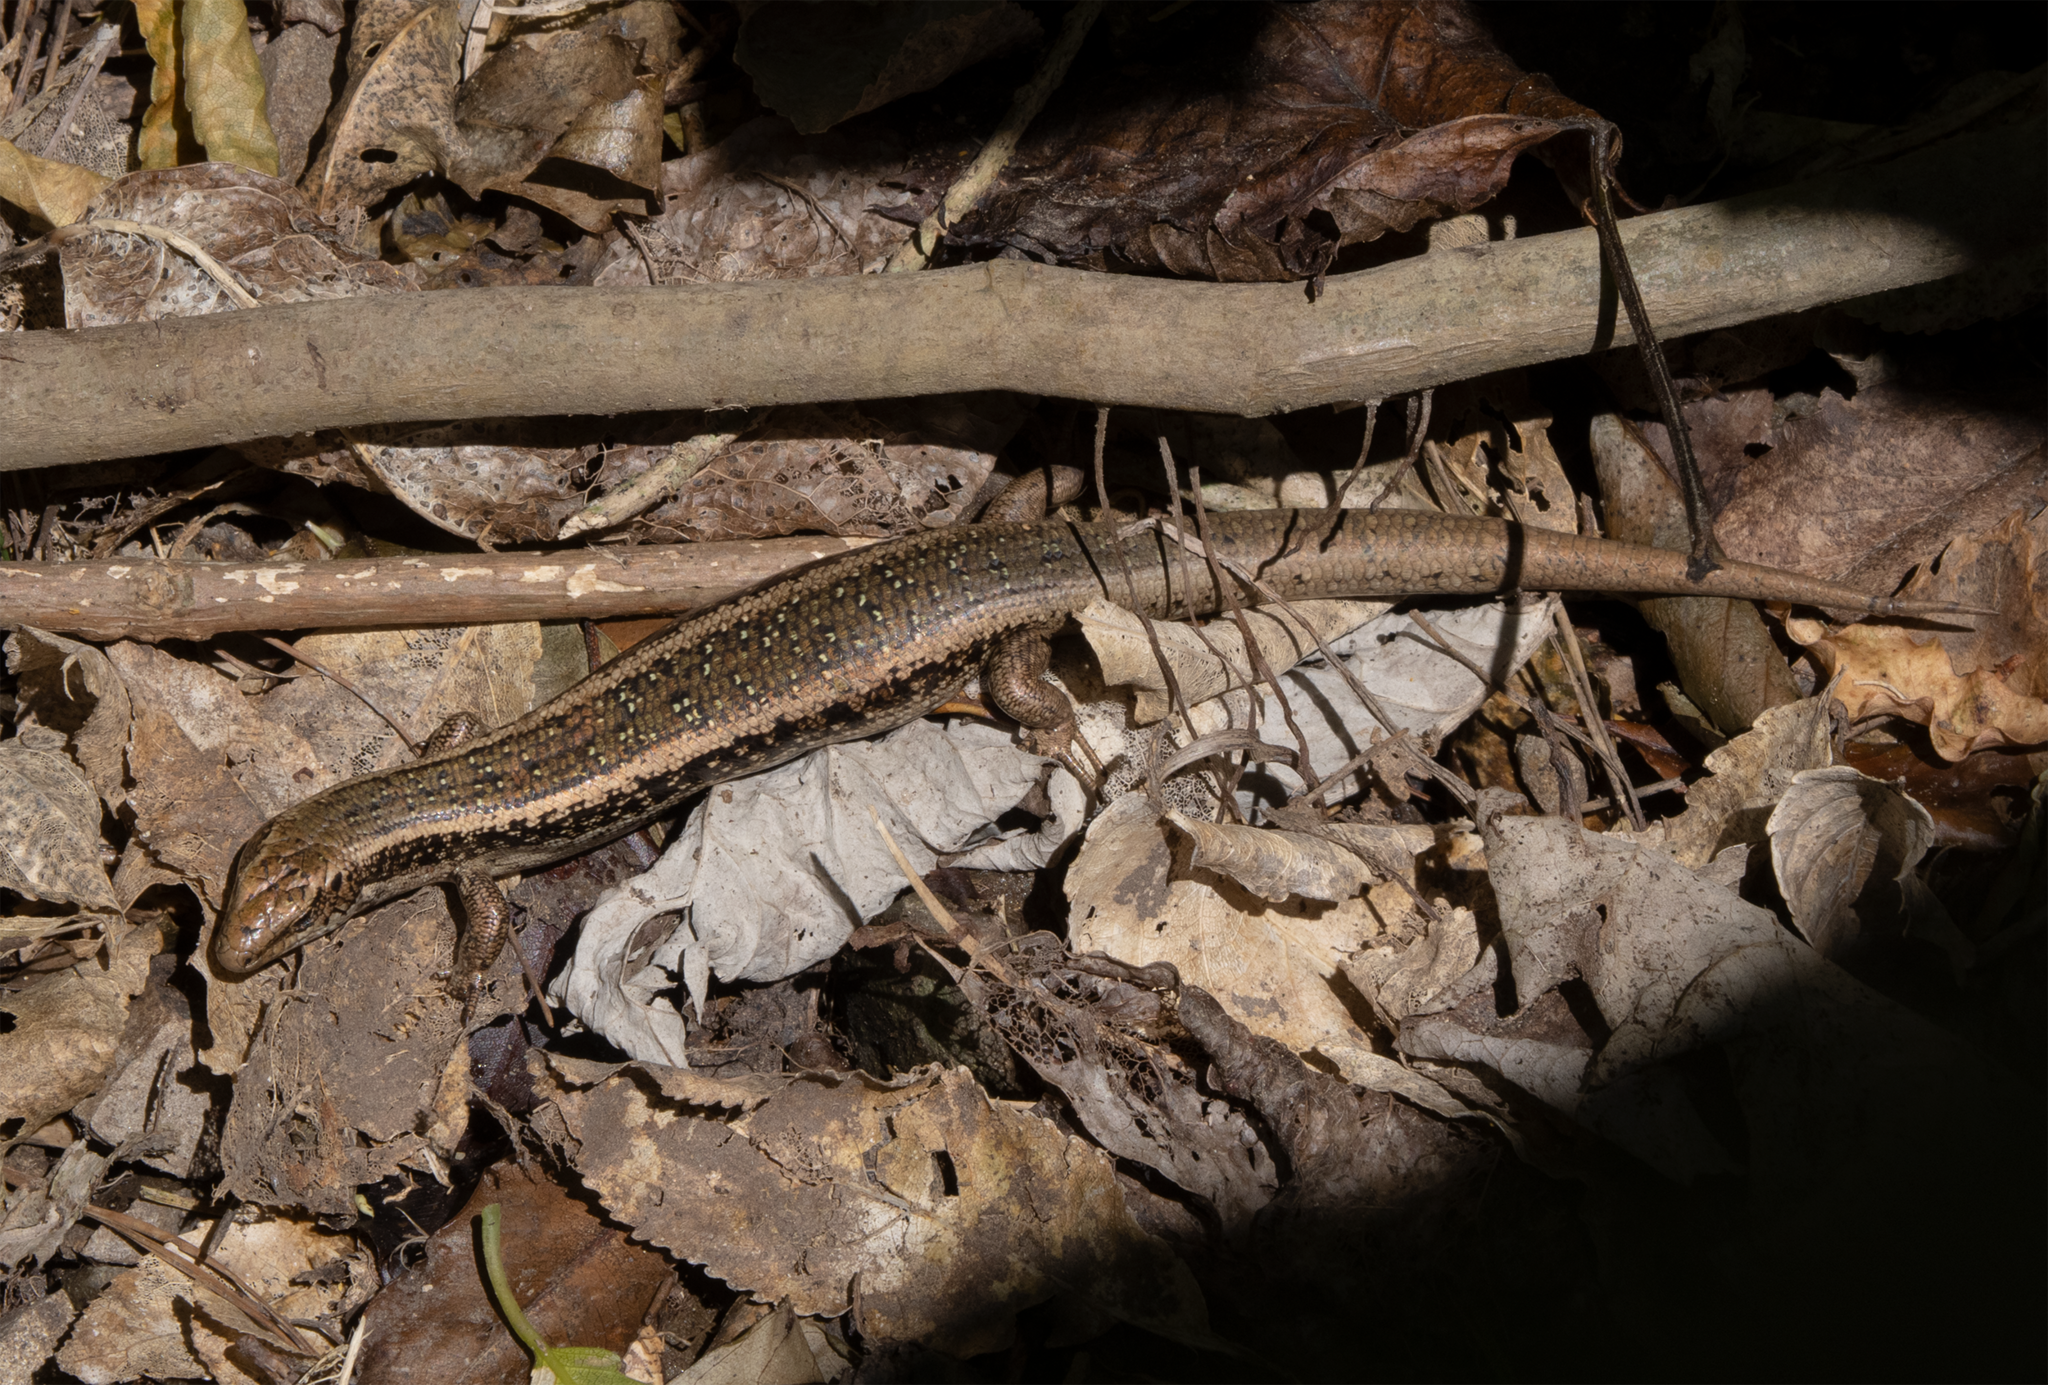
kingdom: Animalia
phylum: Chordata
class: Squamata
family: Scincidae
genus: Oligosoma
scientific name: Oligosoma kokowai
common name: Northern spotted skink
